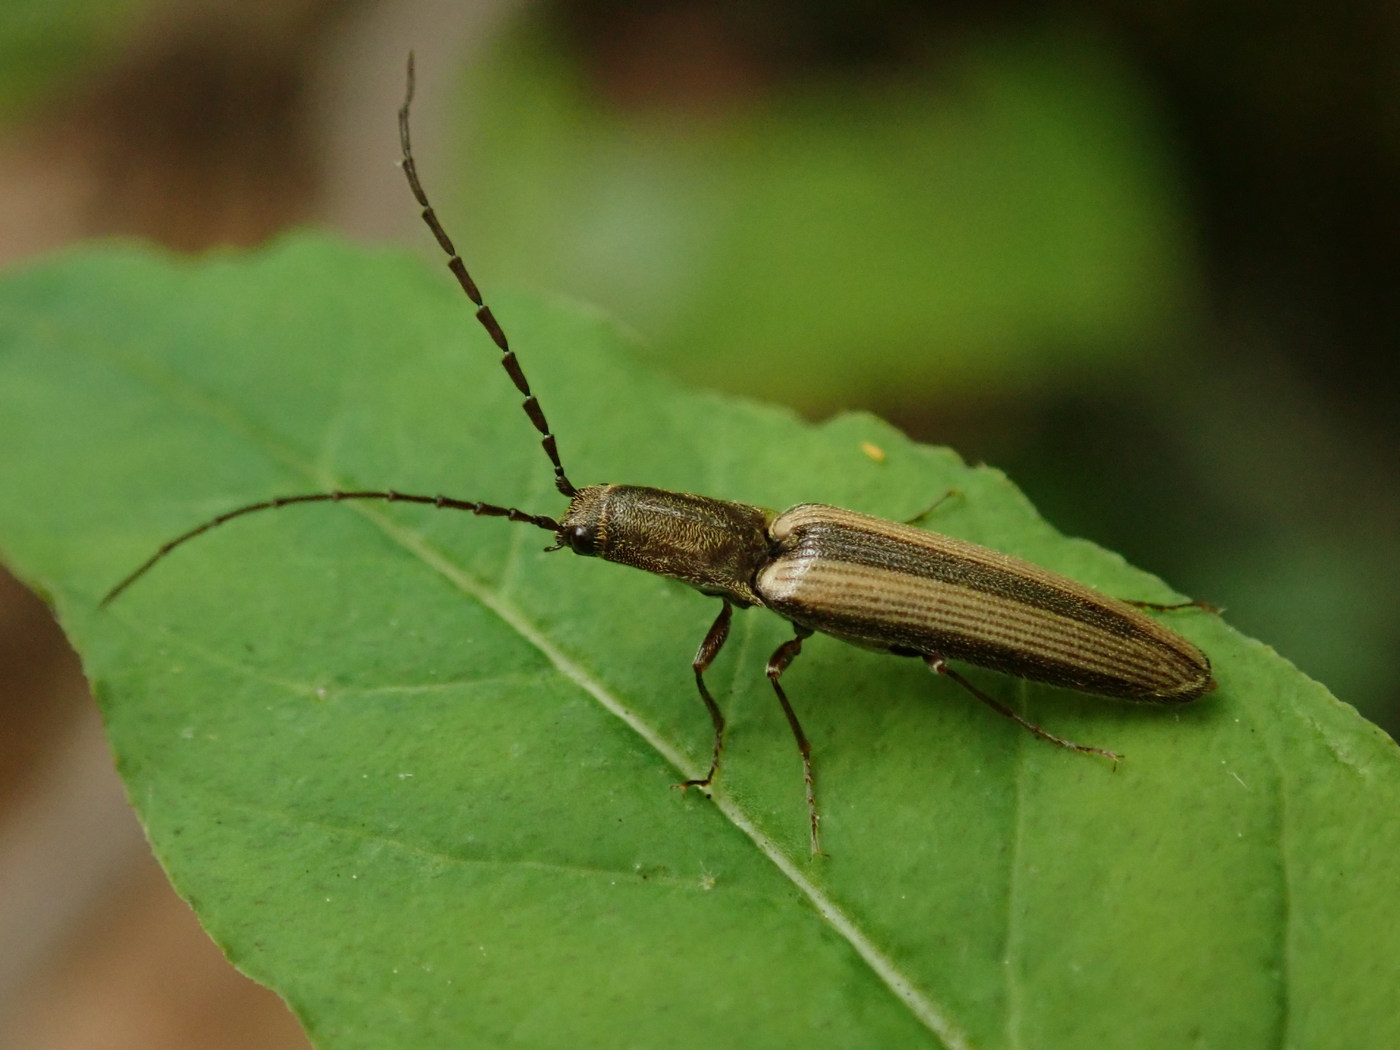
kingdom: Animalia
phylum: Arthropoda
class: Insecta
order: Coleoptera
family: Elateridae
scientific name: Elateridae
